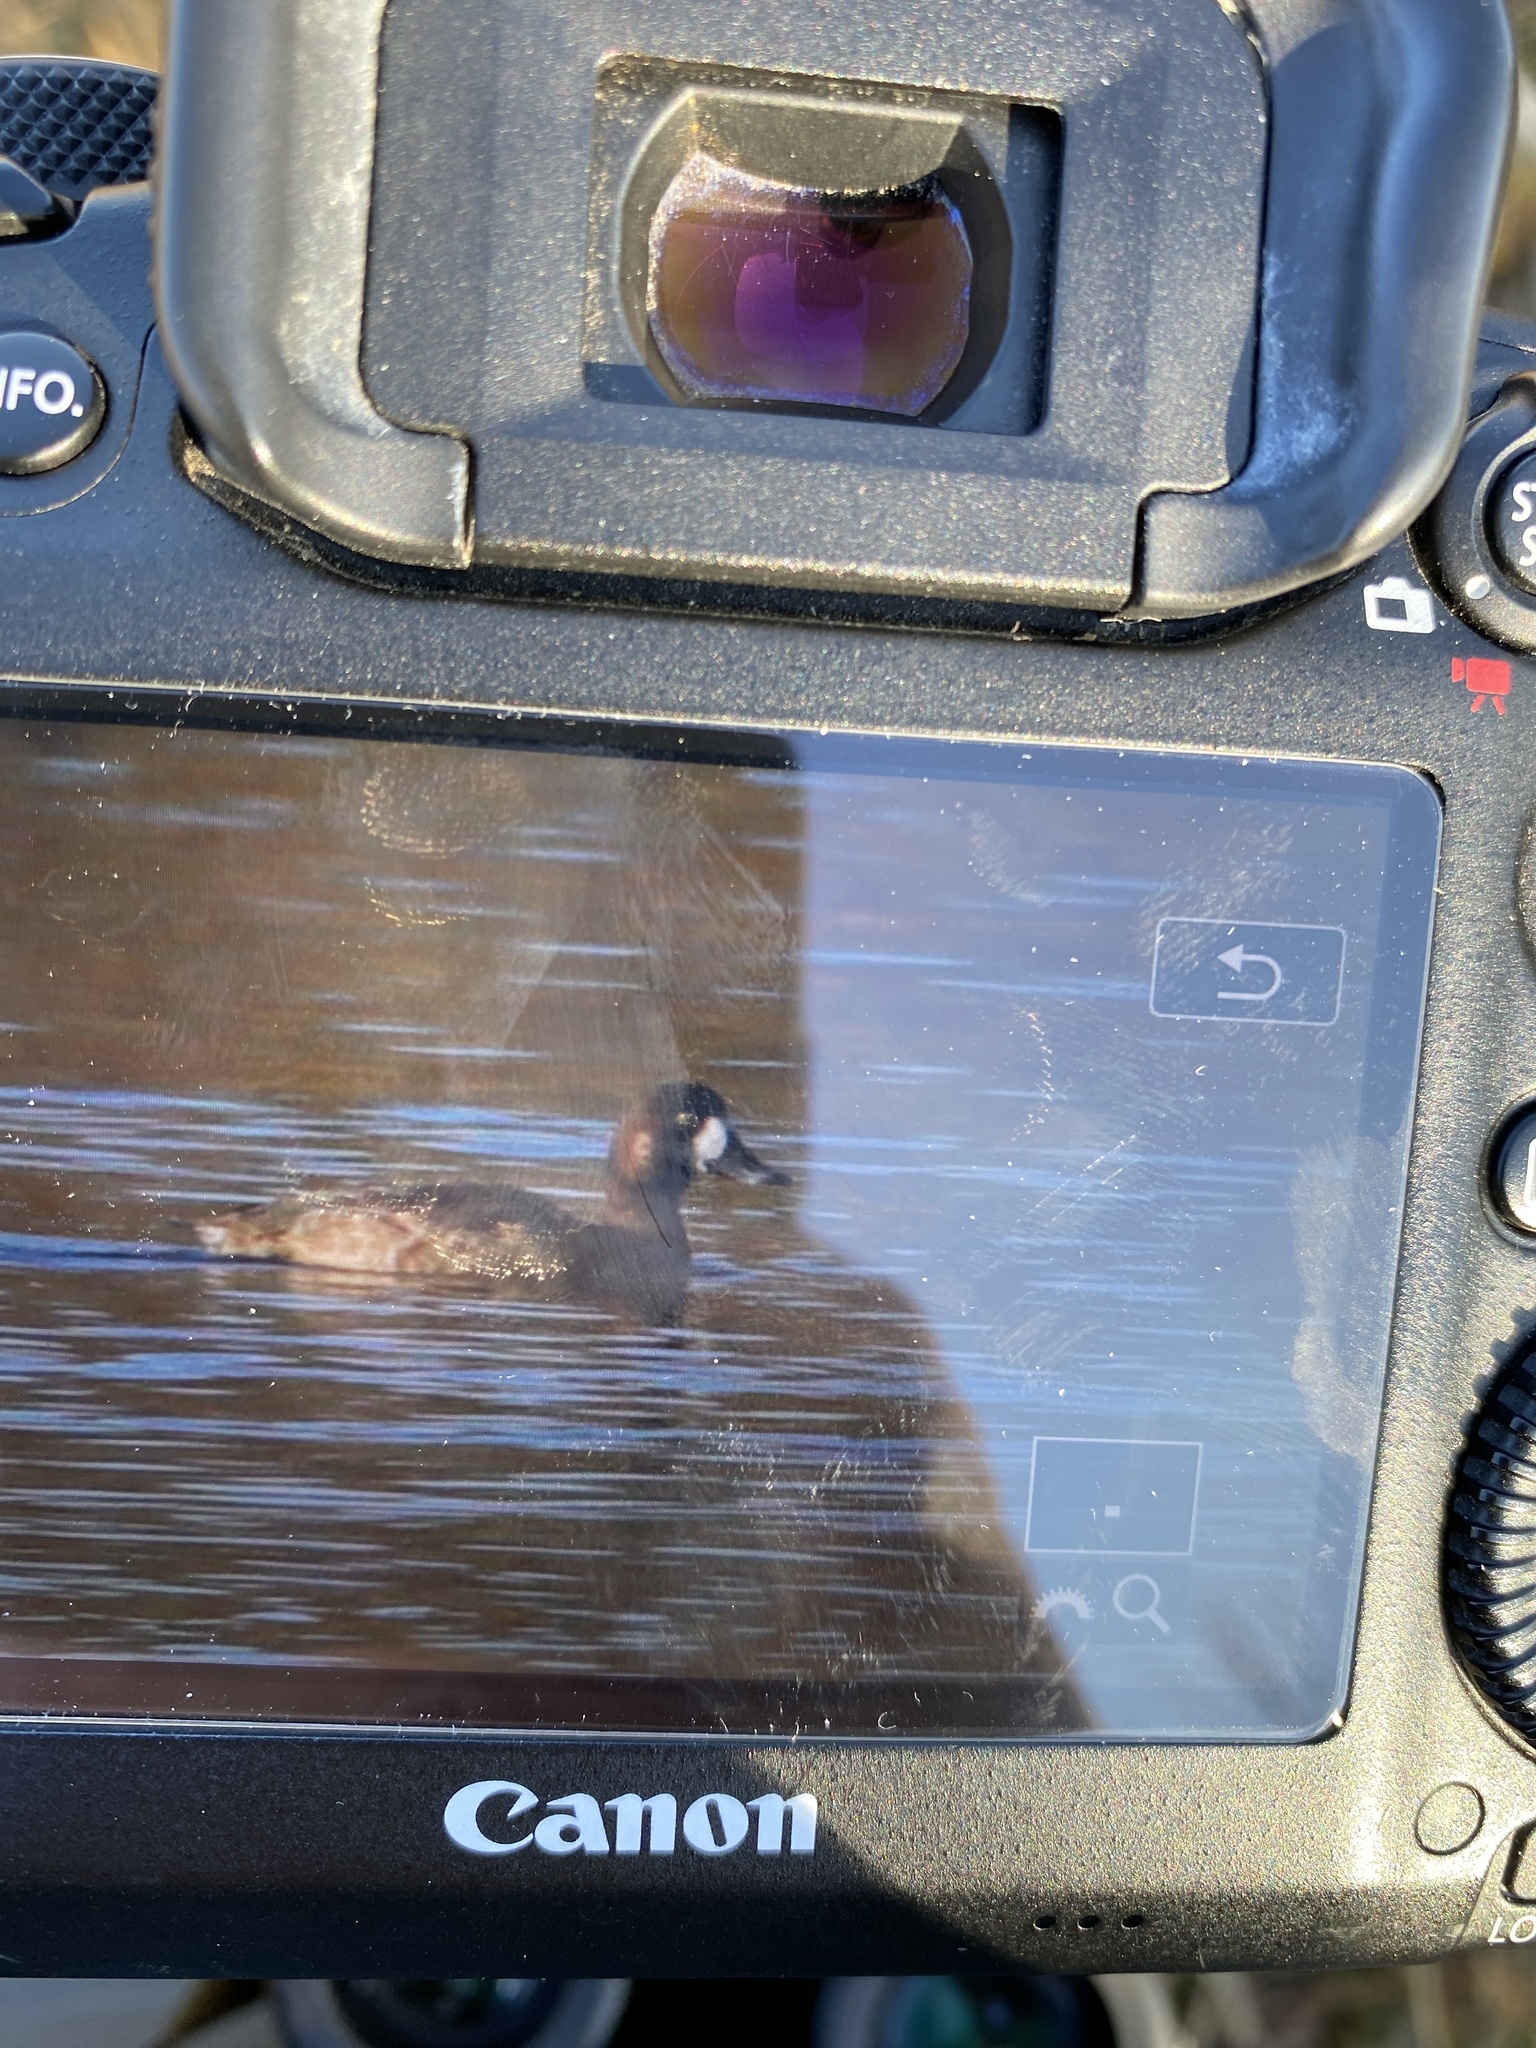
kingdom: Animalia
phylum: Chordata
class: Aves
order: Anseriformes
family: Anatidae
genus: Aythya
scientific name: Aythya marila
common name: Greater scaup
